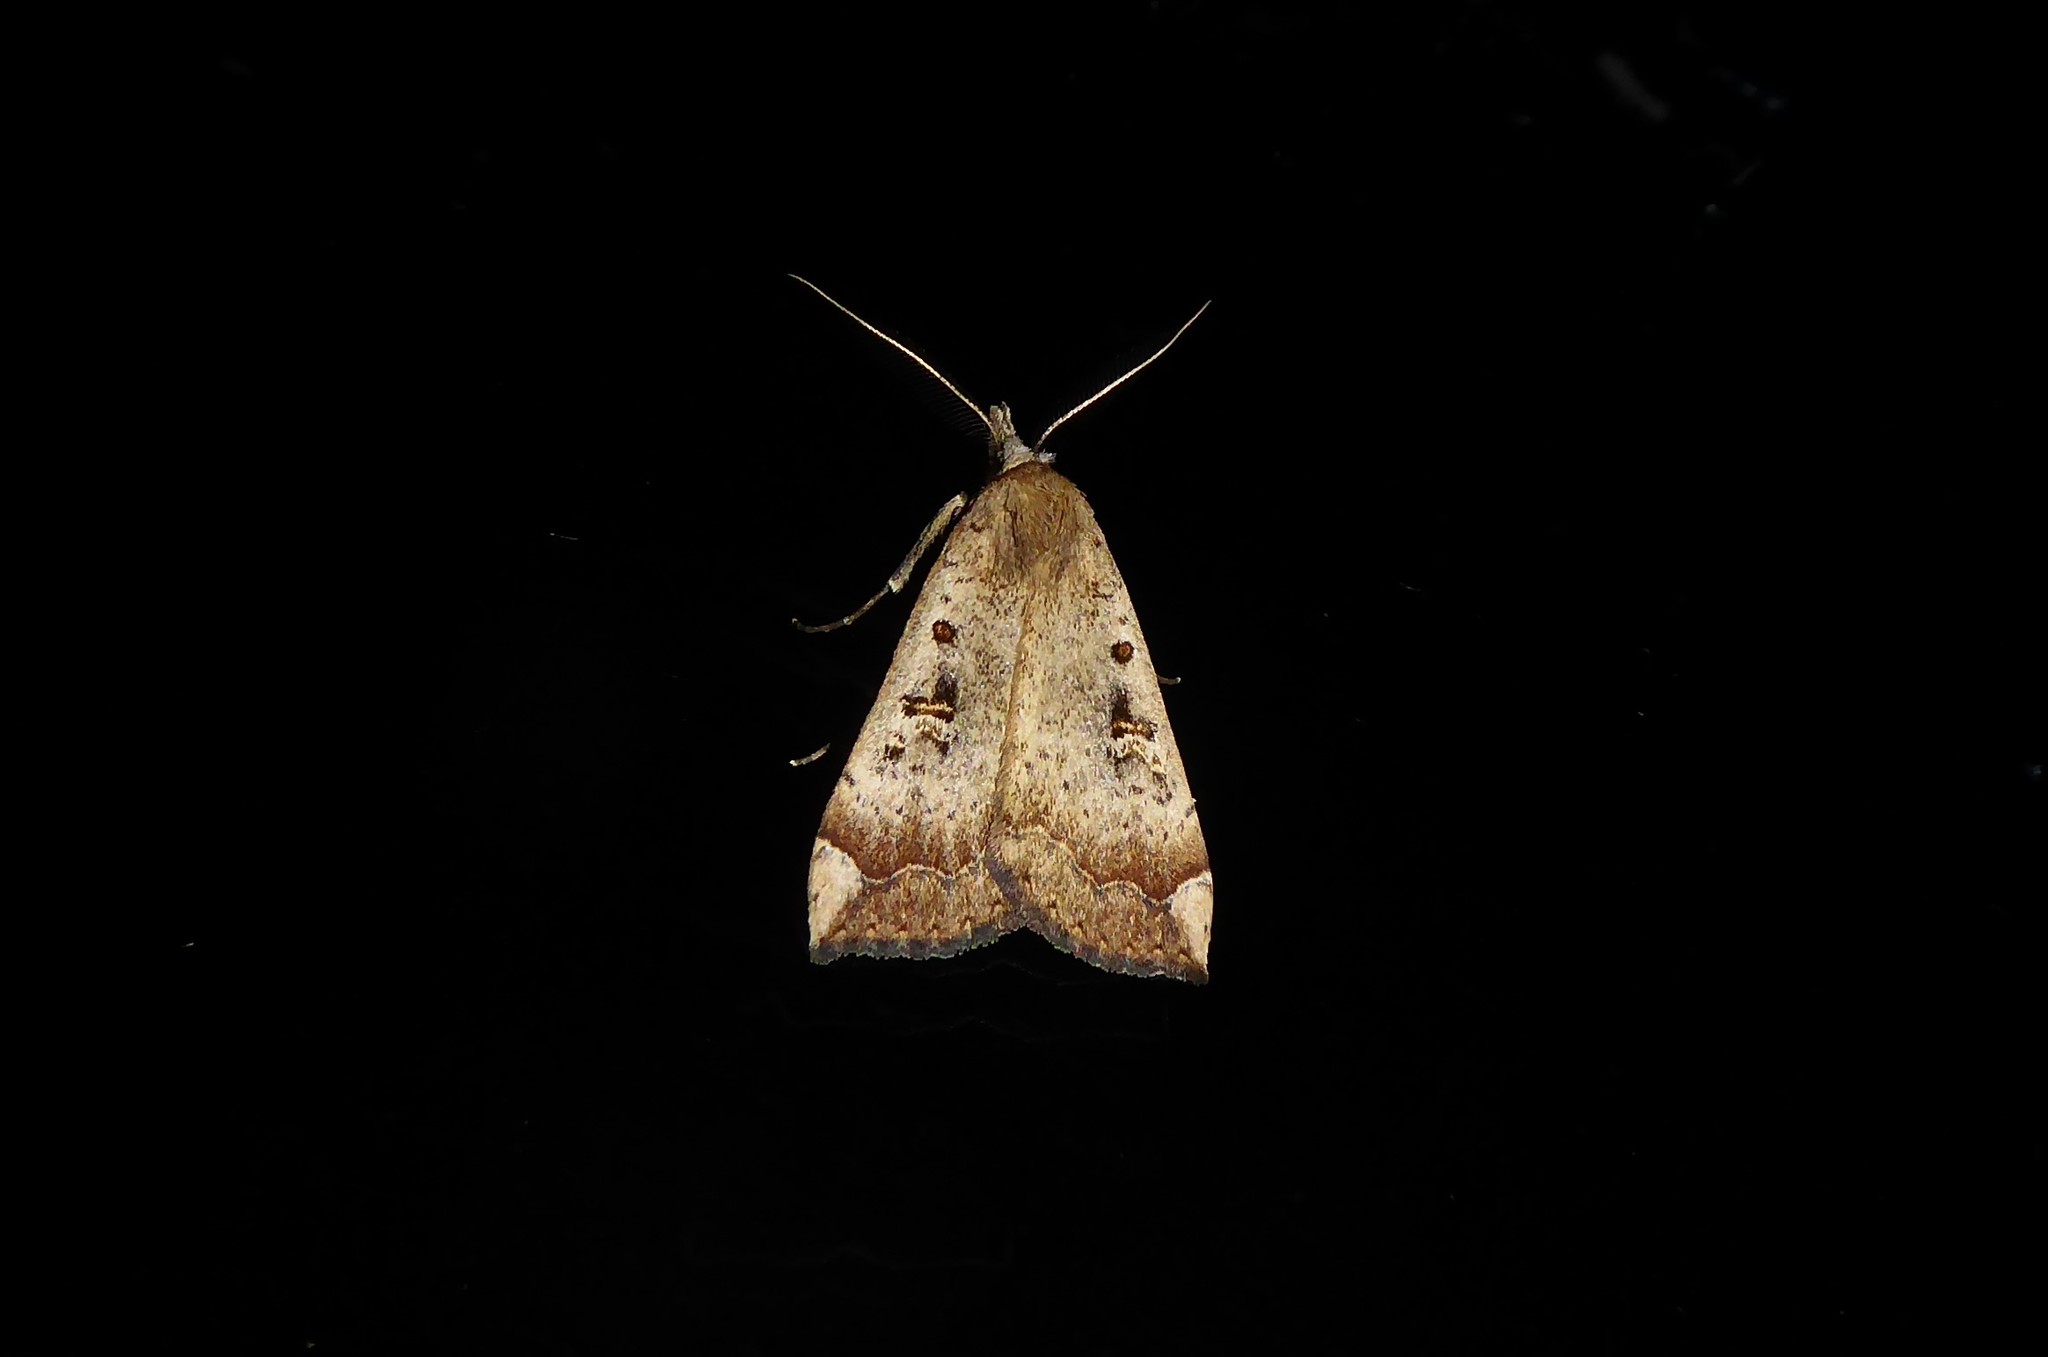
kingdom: Animalia
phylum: Arthropoda
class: Insecta
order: Lepidoptera
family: Erebidae
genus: Rhapsa
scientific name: Rhapsa scotosialis
